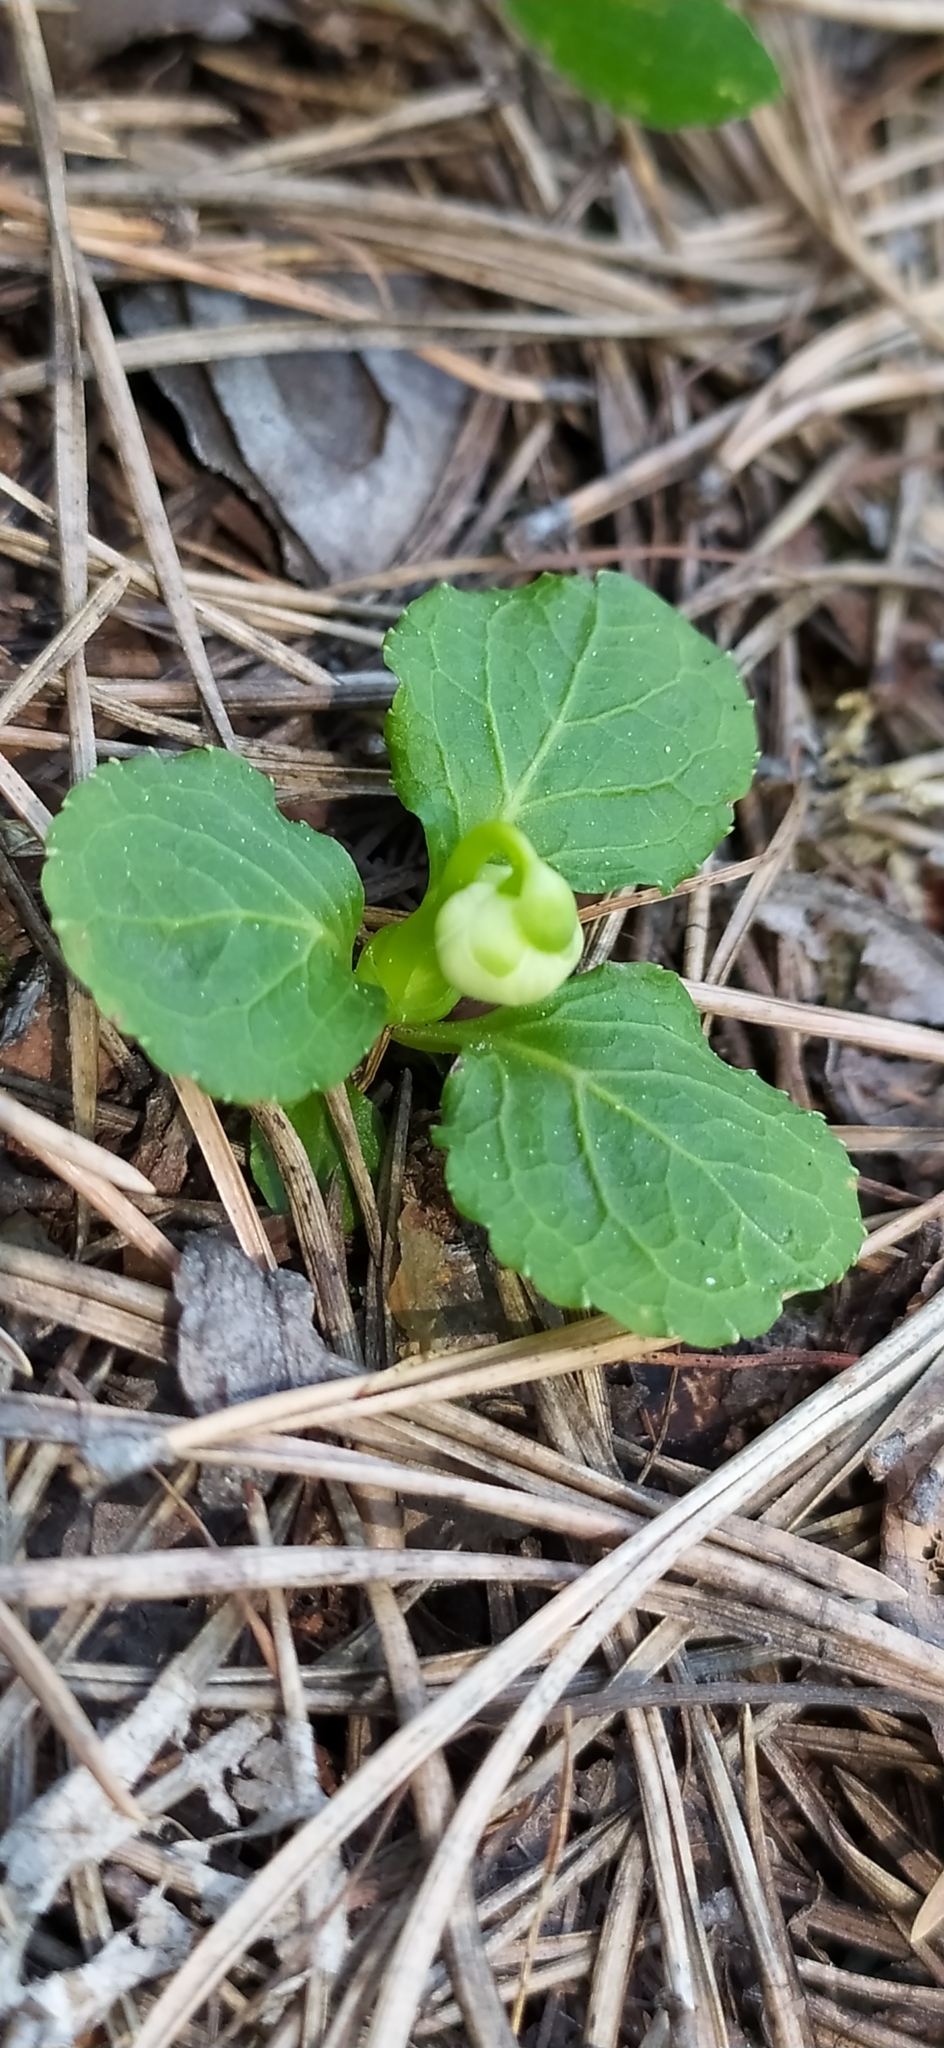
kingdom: Plantae
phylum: Tracheophyta
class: Magnoliopsida
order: Ericales
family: Ericaceae
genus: Moneses
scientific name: Moneses uniflora
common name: One-flowered wintergreen
